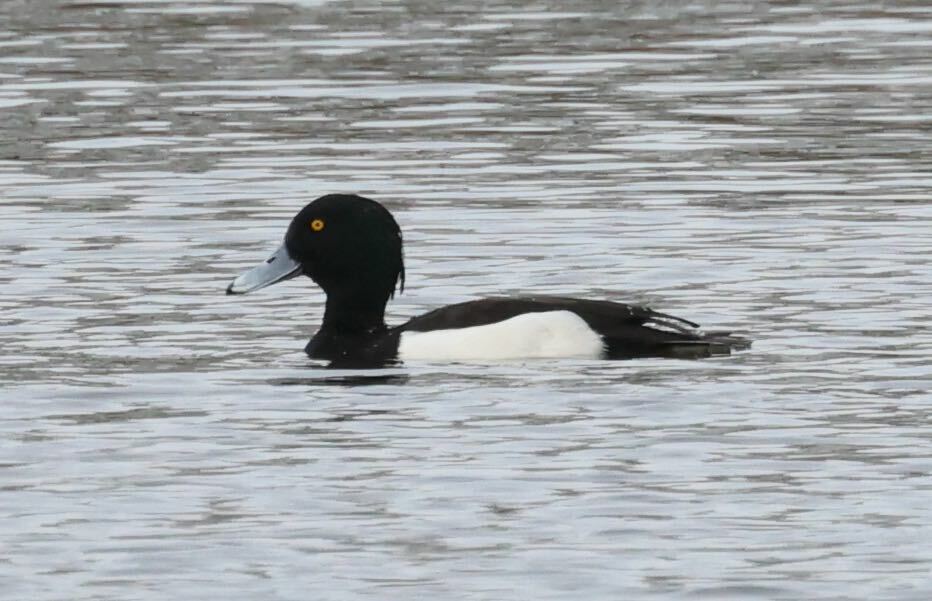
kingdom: Animalia
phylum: Chordata
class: Aves
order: Anseriformes
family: Anatidae
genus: Aythya
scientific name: Aythya fuligula
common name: Tufted duck
